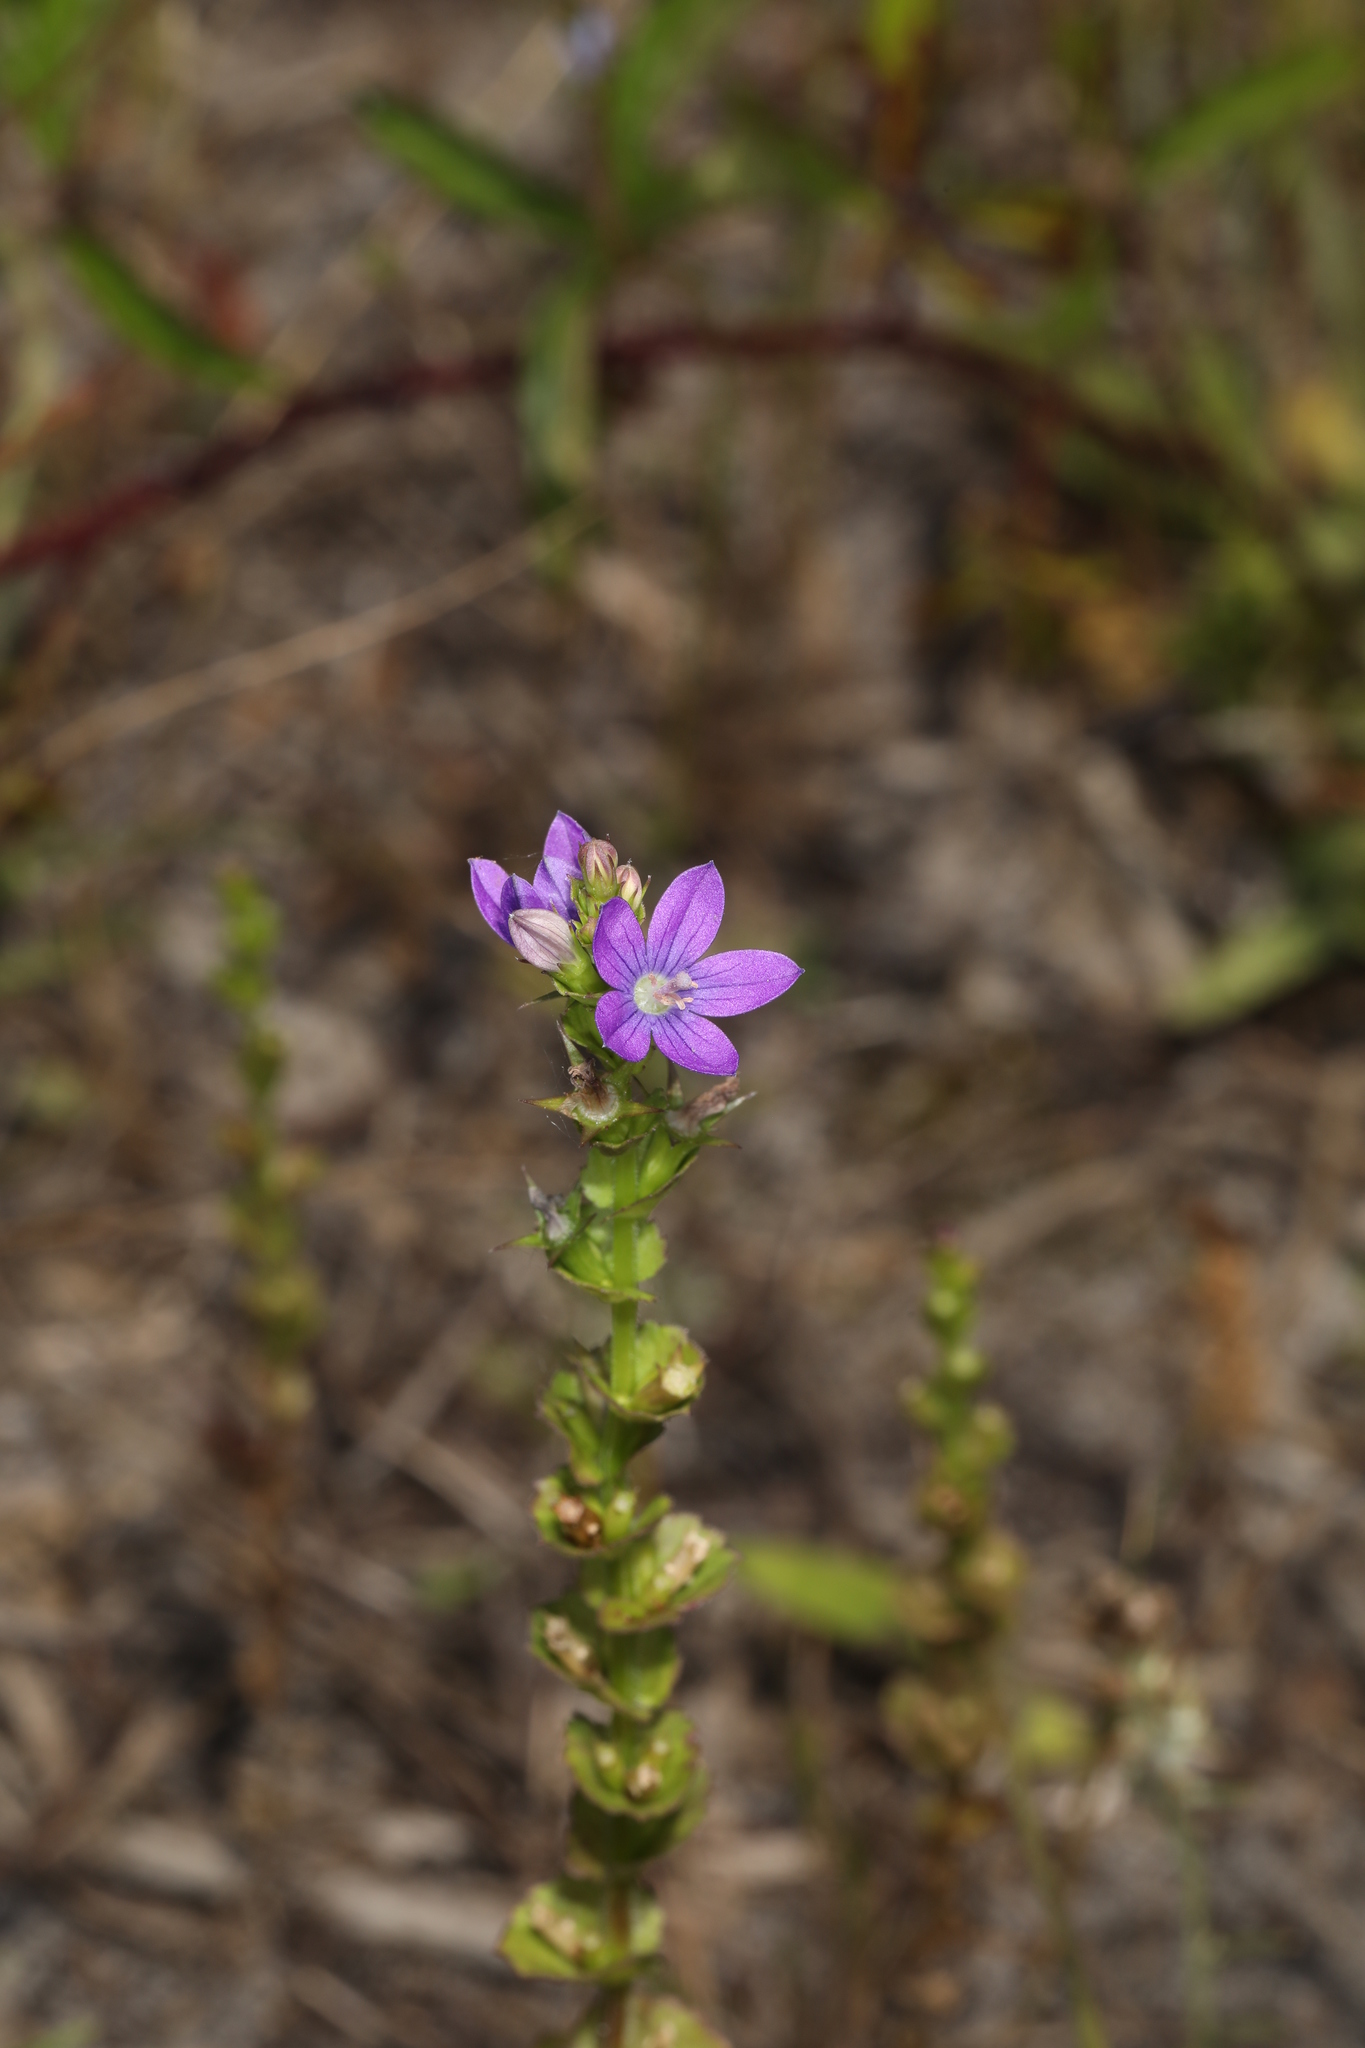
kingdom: Plantae
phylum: Tracheophyta
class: Magnoliopsida
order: Asterales
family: Campanulaceae
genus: Triodanis
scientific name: Triodanis perfoliata
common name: Clasping venus' looking-glass
